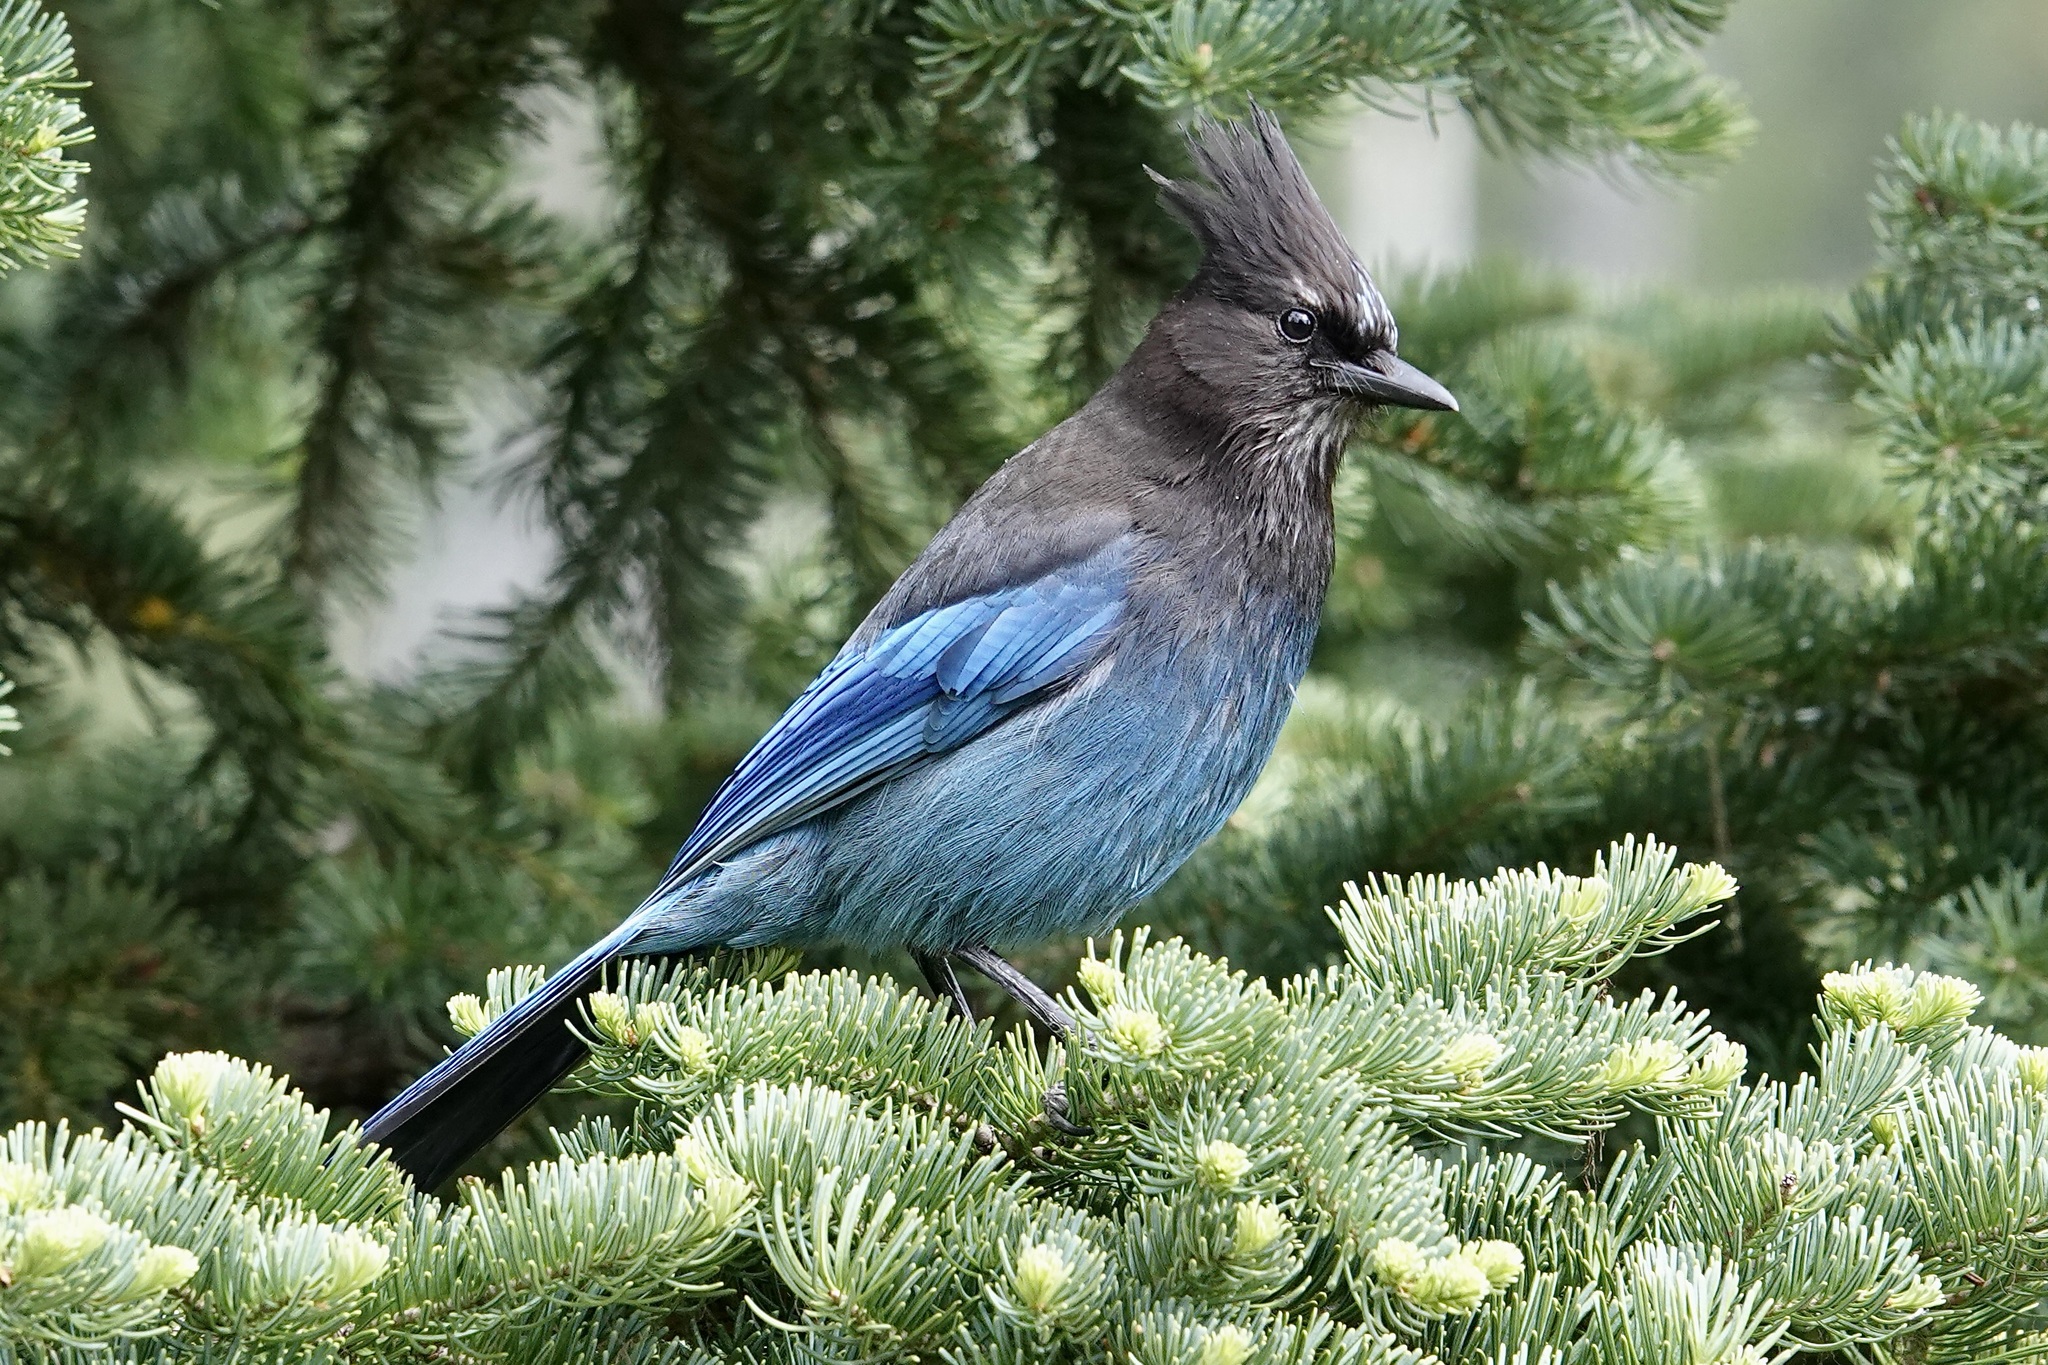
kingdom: Animalia
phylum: Chordata
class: Aves
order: Passeriformes
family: Corvidae
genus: Cyanocitta
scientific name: Cyanocitta stelleri
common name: Steller's jay
